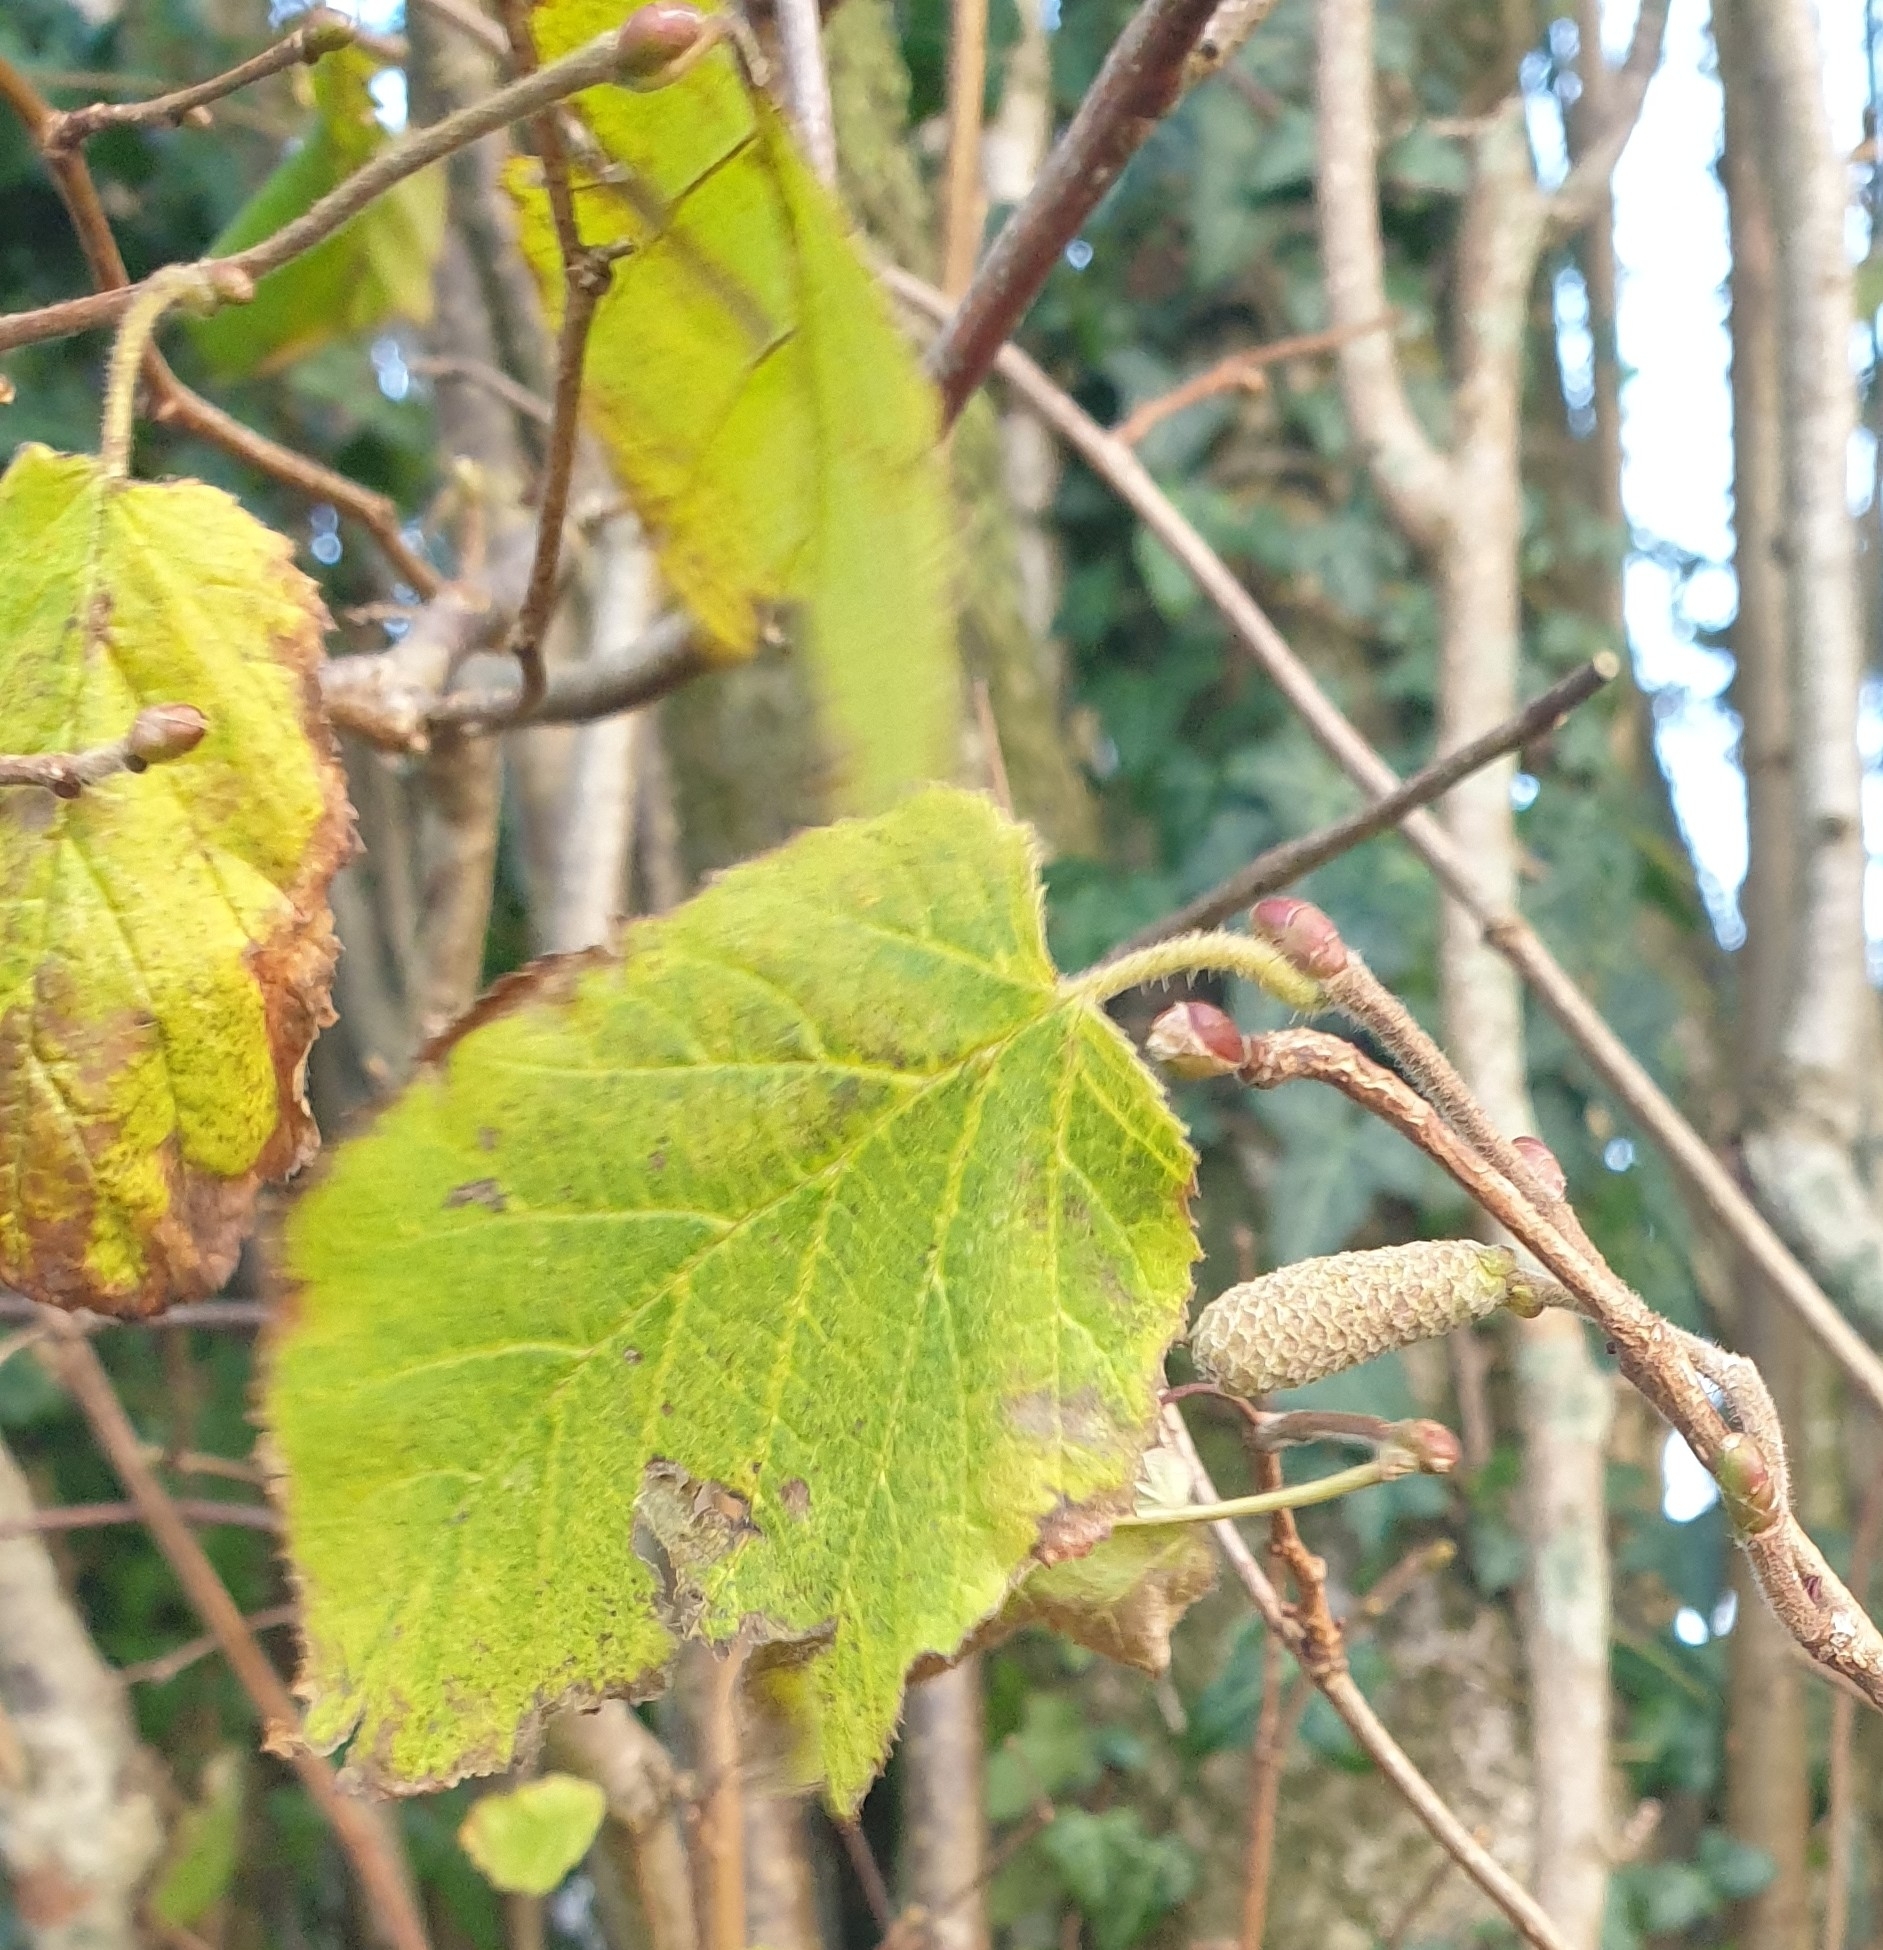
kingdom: Plantae
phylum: Tracheophyta
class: Magnoliopsida
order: Fagales
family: Betulaceae
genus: Corylus
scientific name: Corylus avellana
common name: European hazel
